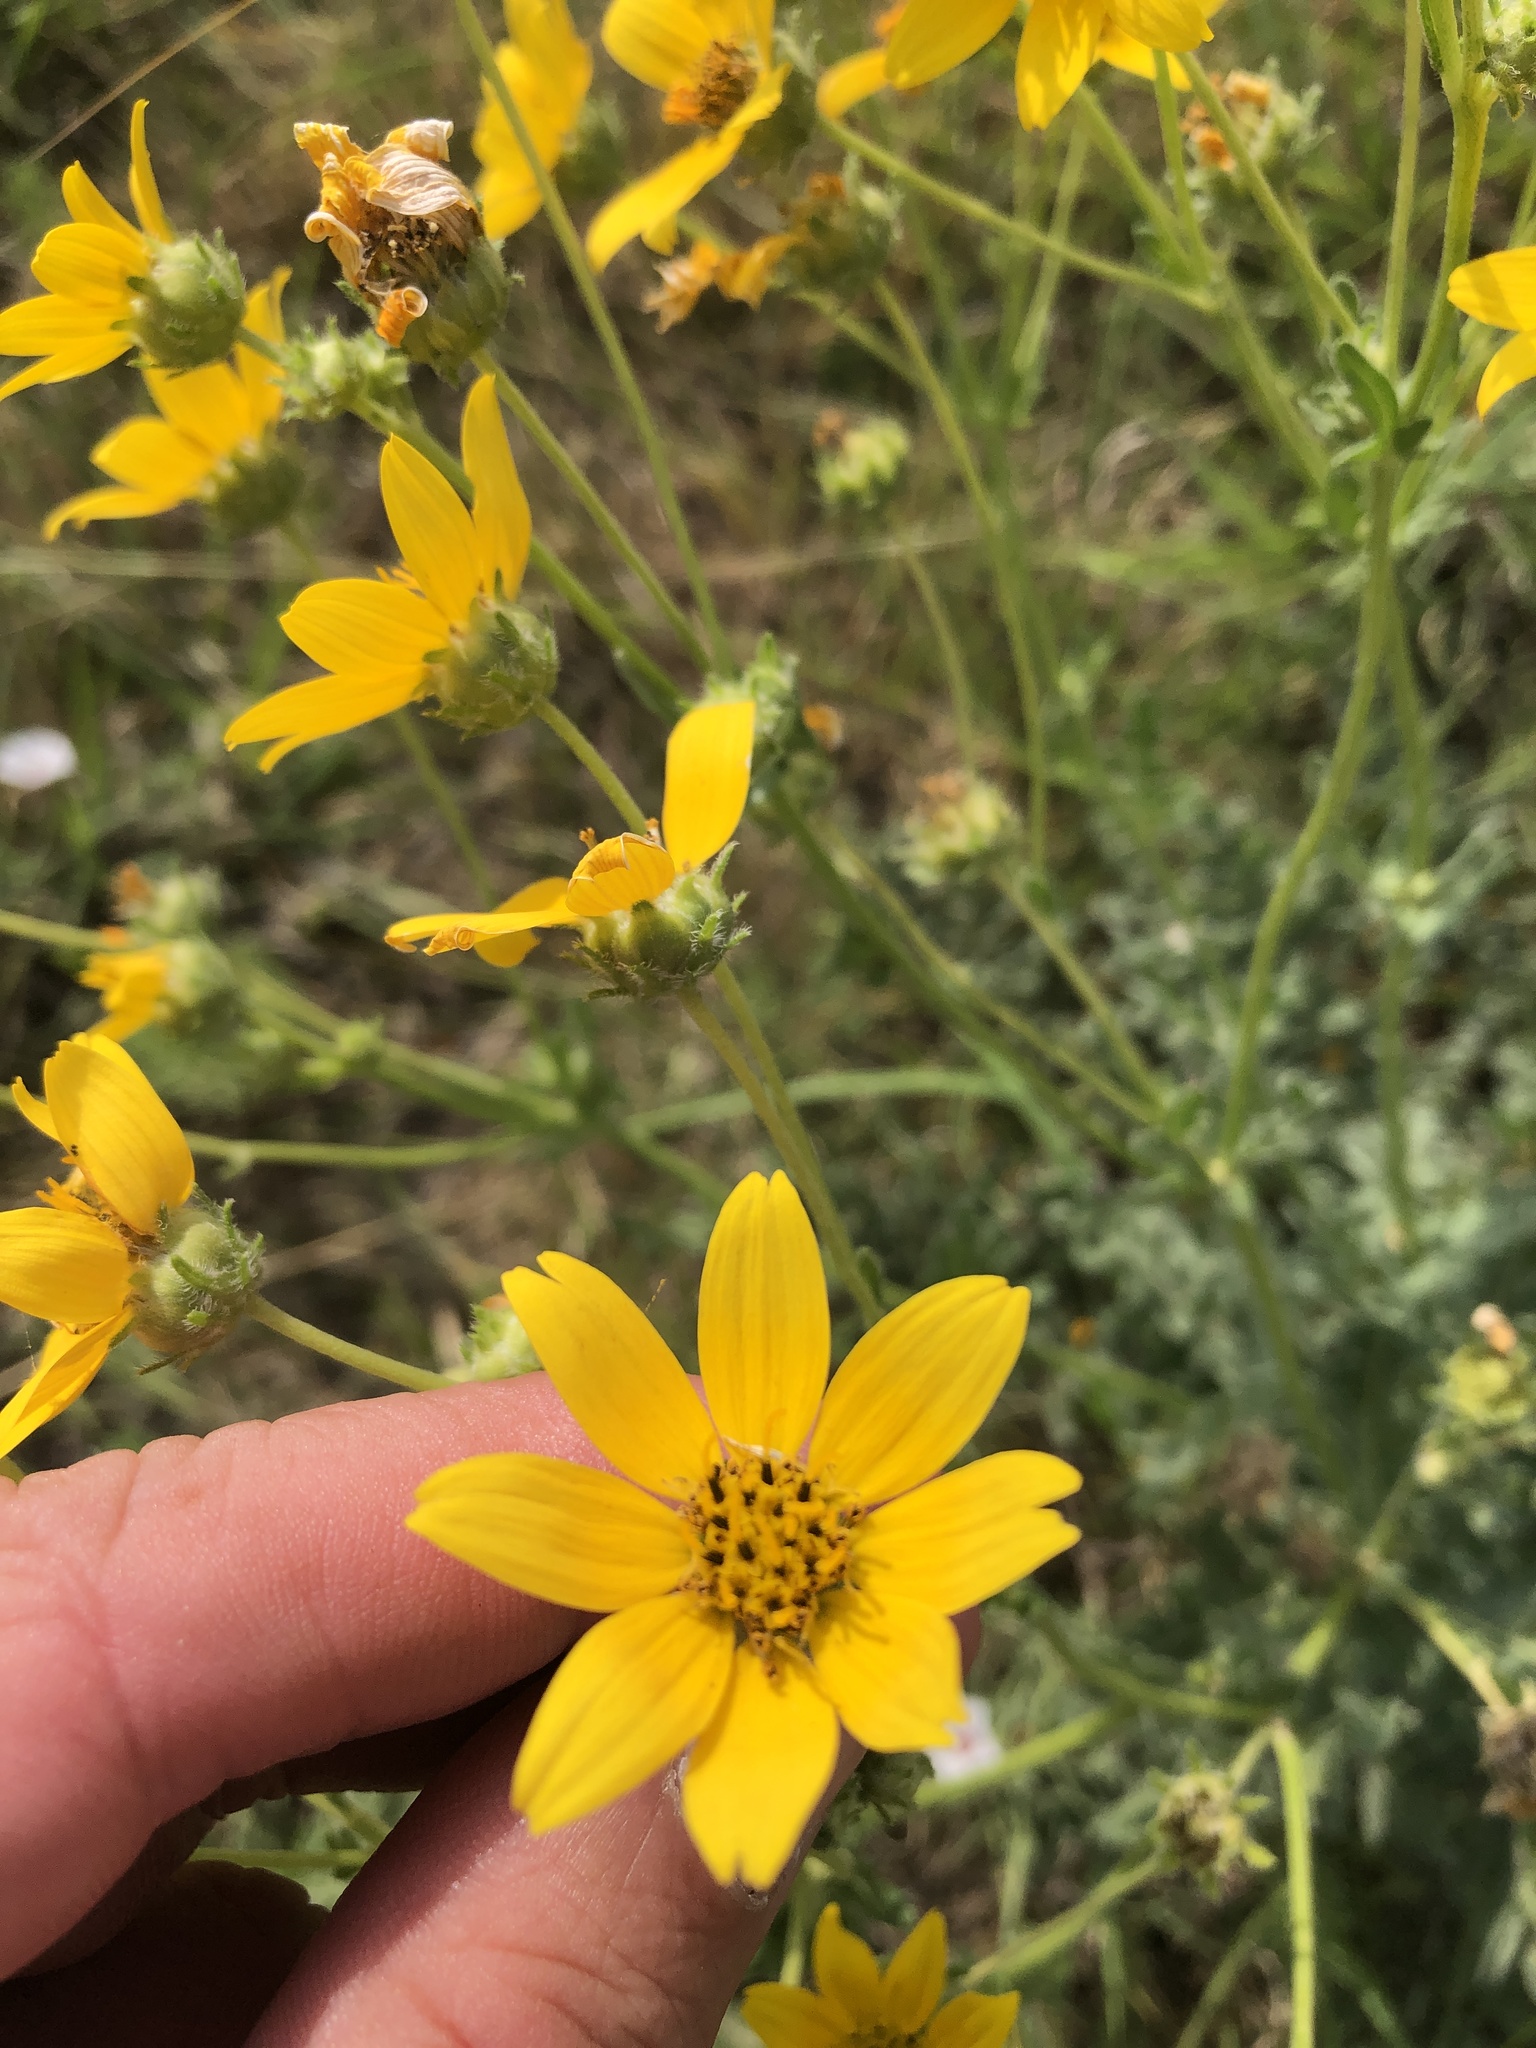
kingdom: Plantae
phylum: Tracheophyta
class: Magnoliopsida
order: Asterales
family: Asteraceae
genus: Engelmannia
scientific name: Engelmannia peristenia
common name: Engelmann's daisy
